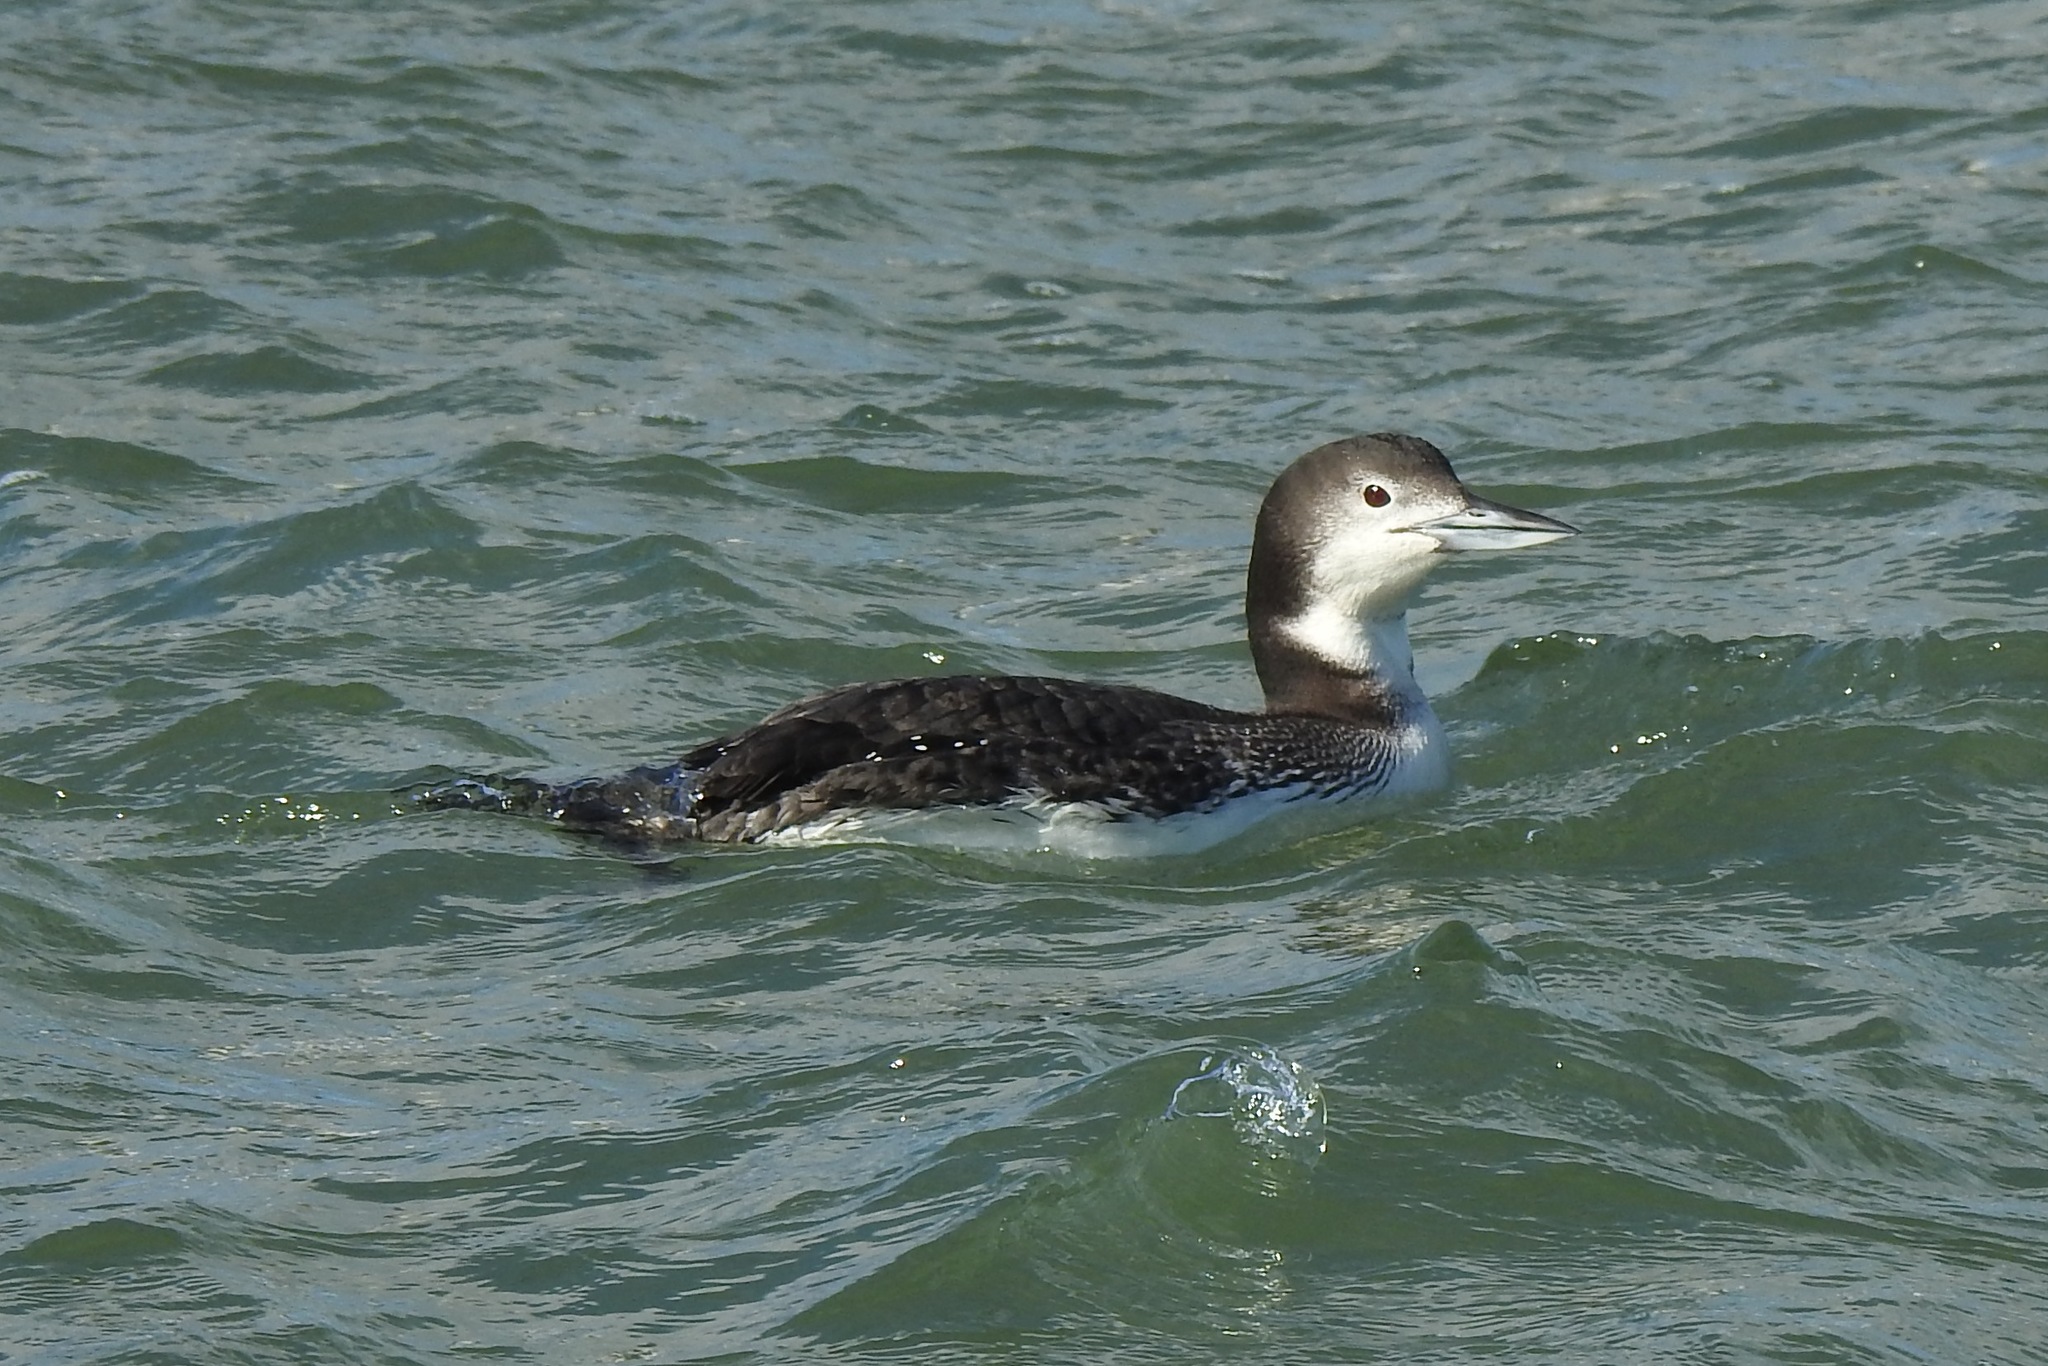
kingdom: Animalia
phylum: Chordata
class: Aves
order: Gaviiformes
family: Gaviidae
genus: Gavia
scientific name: Gavia immer
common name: Common loon
